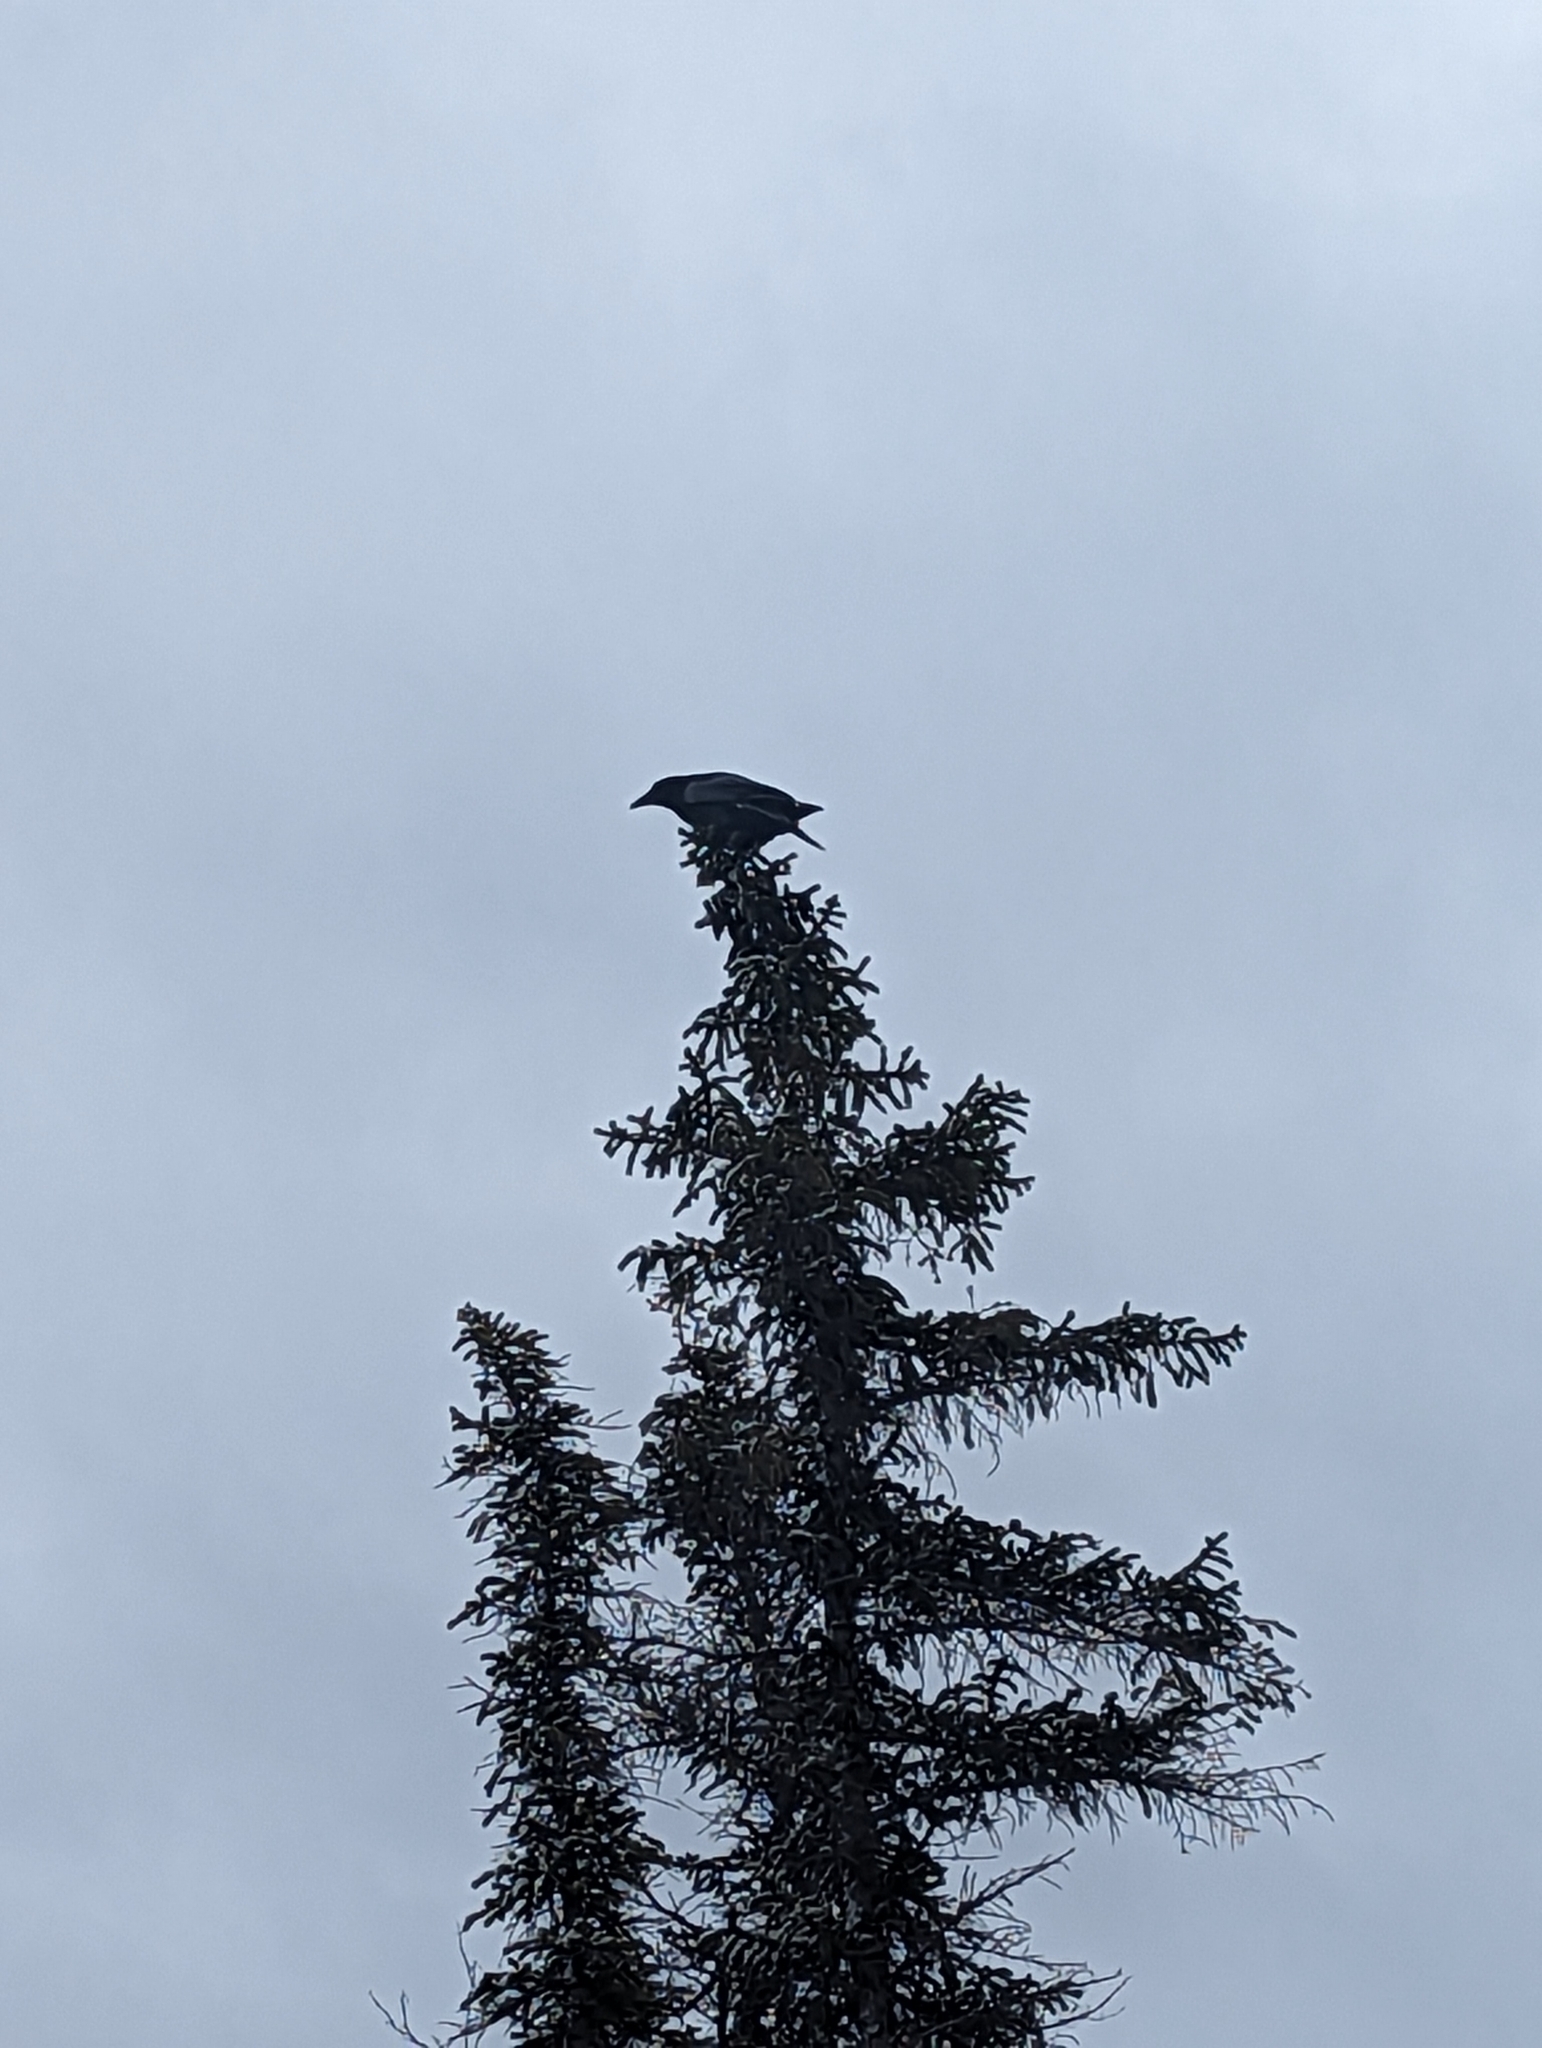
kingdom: Animalia
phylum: Chordata
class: Aves
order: Passeriformes
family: Corvidae
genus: Corvus
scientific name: Corvus corax
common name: Common raven
